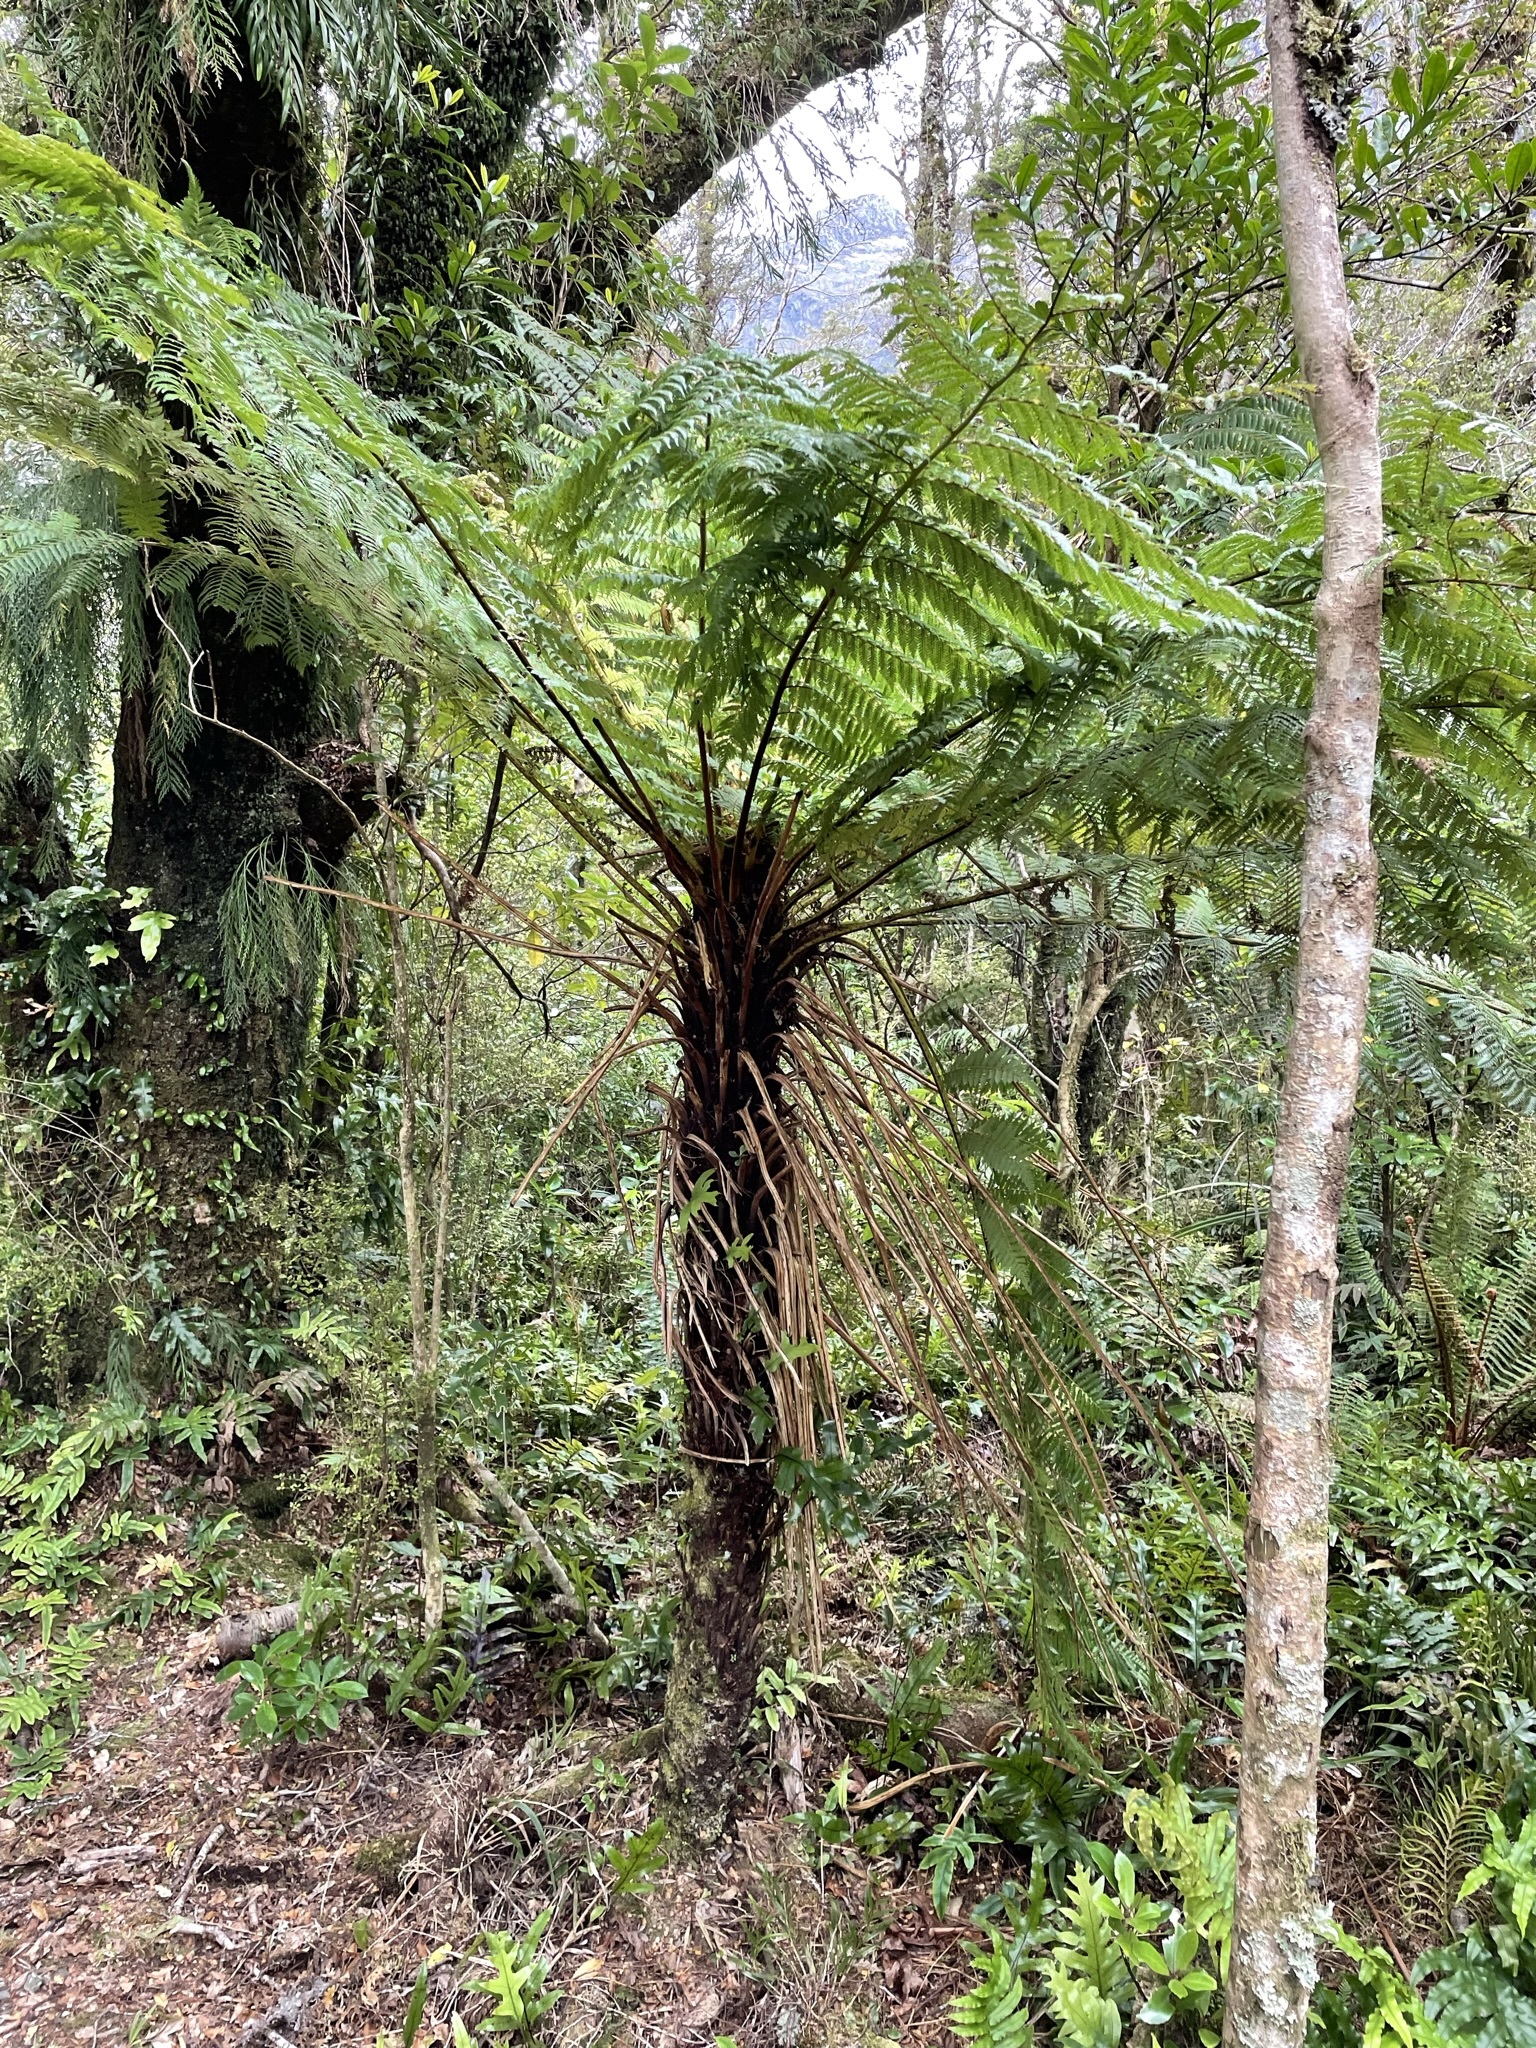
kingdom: Plantae
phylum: Tracheophyta
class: Polypodiopsida
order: Cyatheales
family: Cyatheaceae
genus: Alsophila
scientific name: Alsophila smithii
